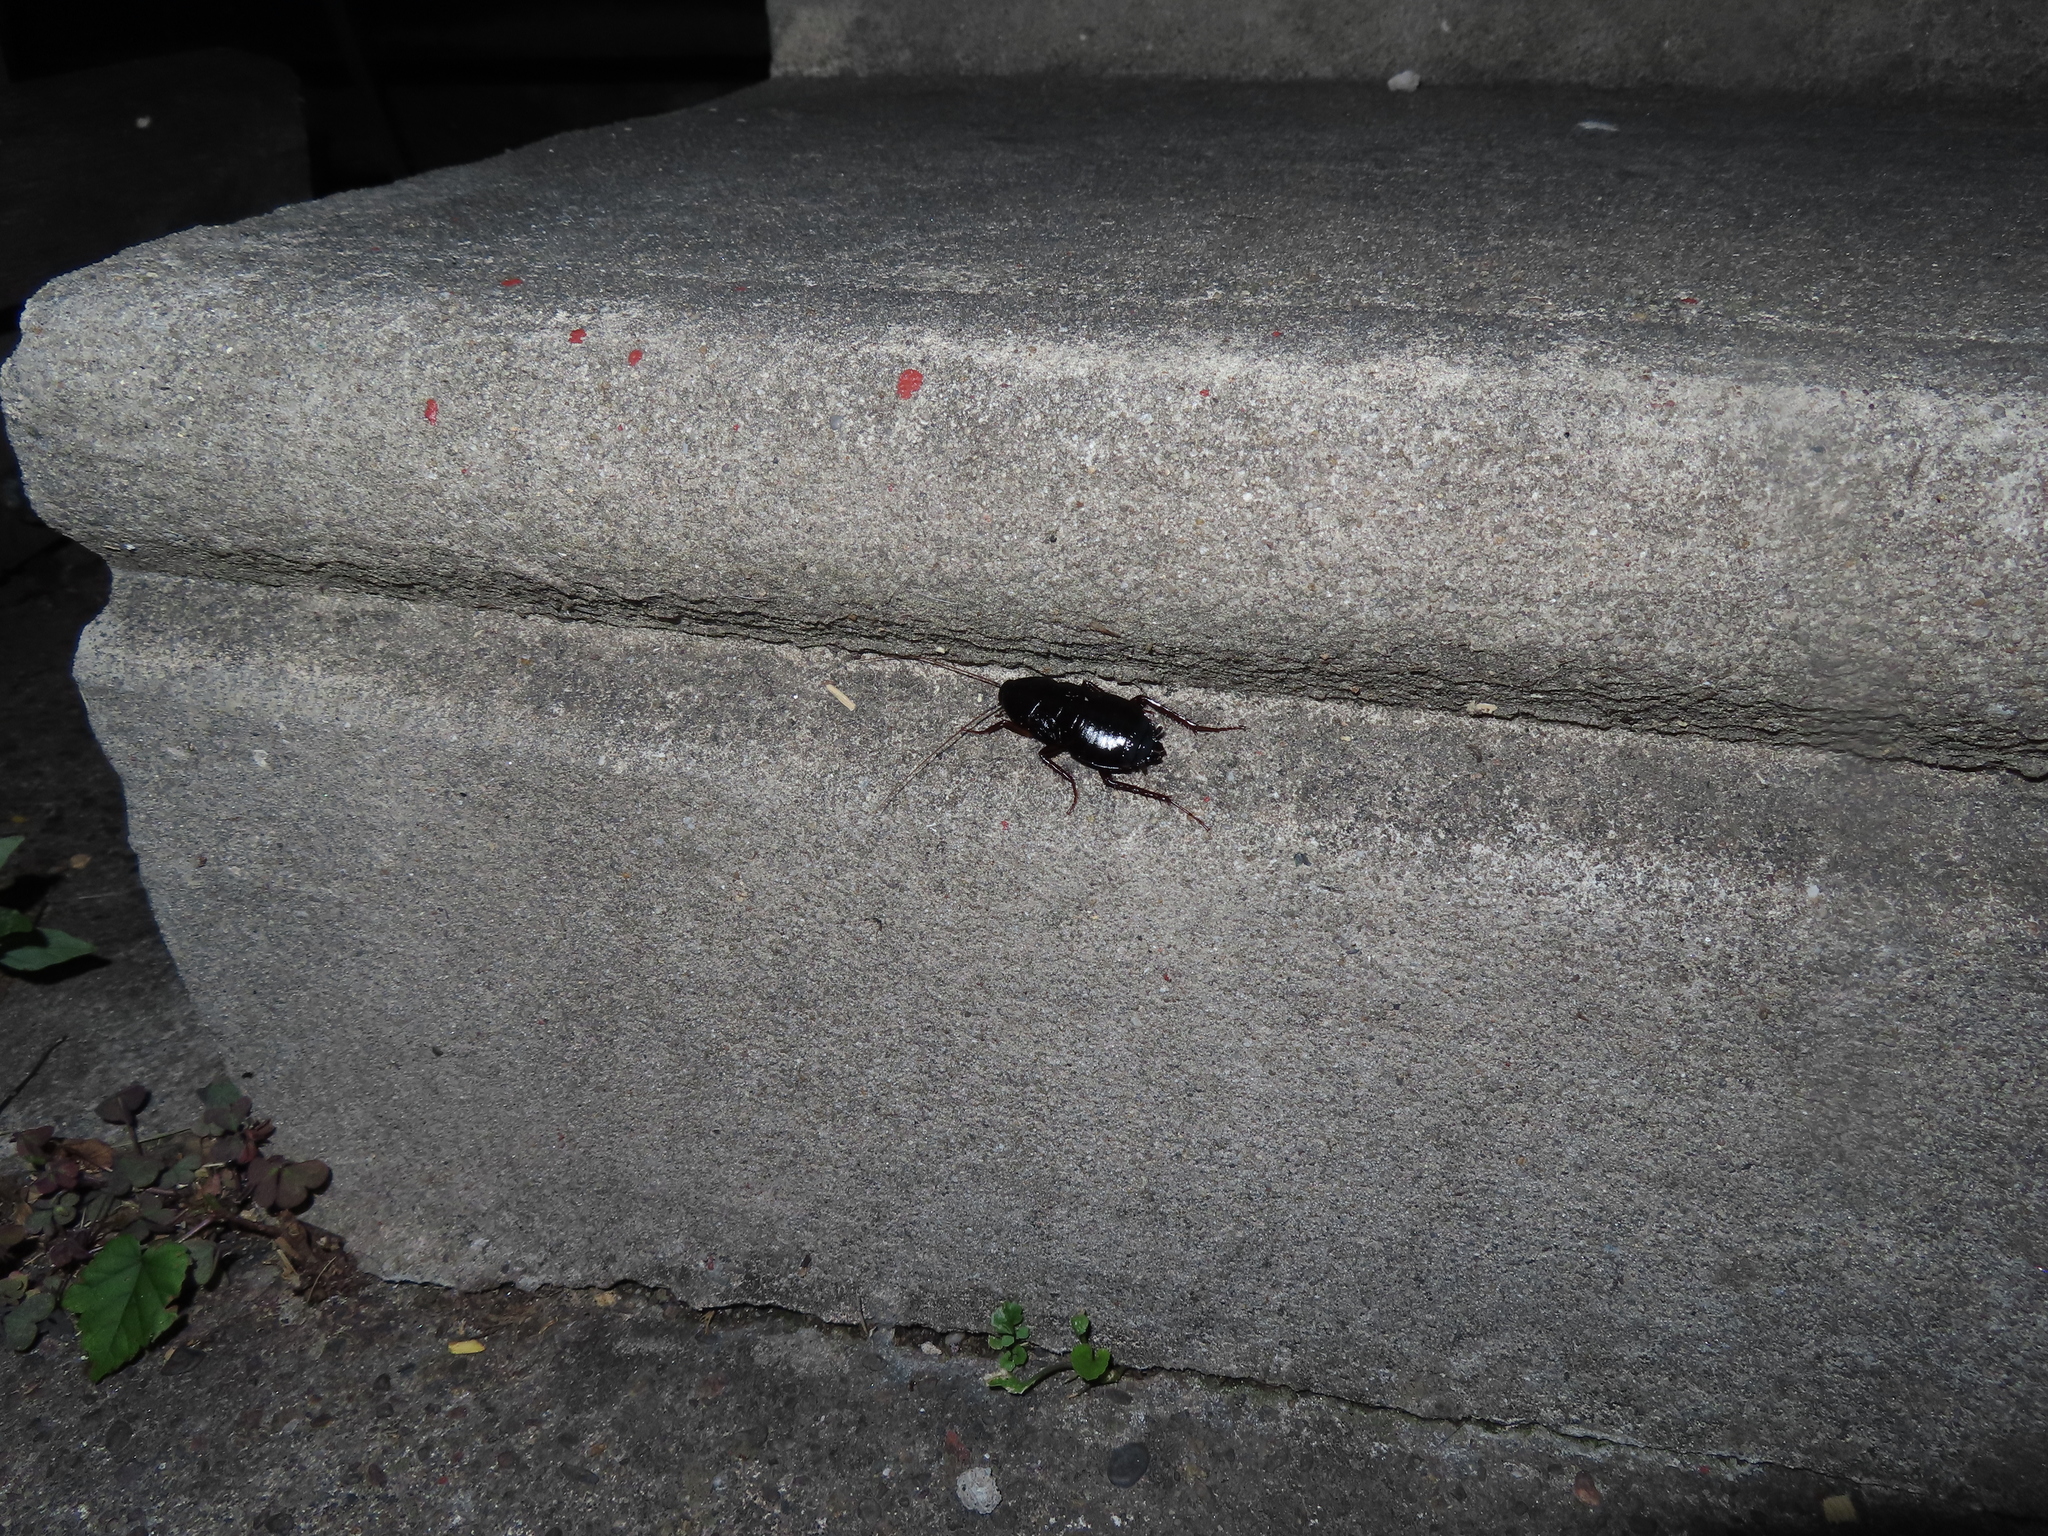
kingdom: Animalia
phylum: Arthropoda
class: Insecta
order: Blattodea
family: Blattidae
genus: Blatta
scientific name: Blatta orientalis
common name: Oriental cockroach
